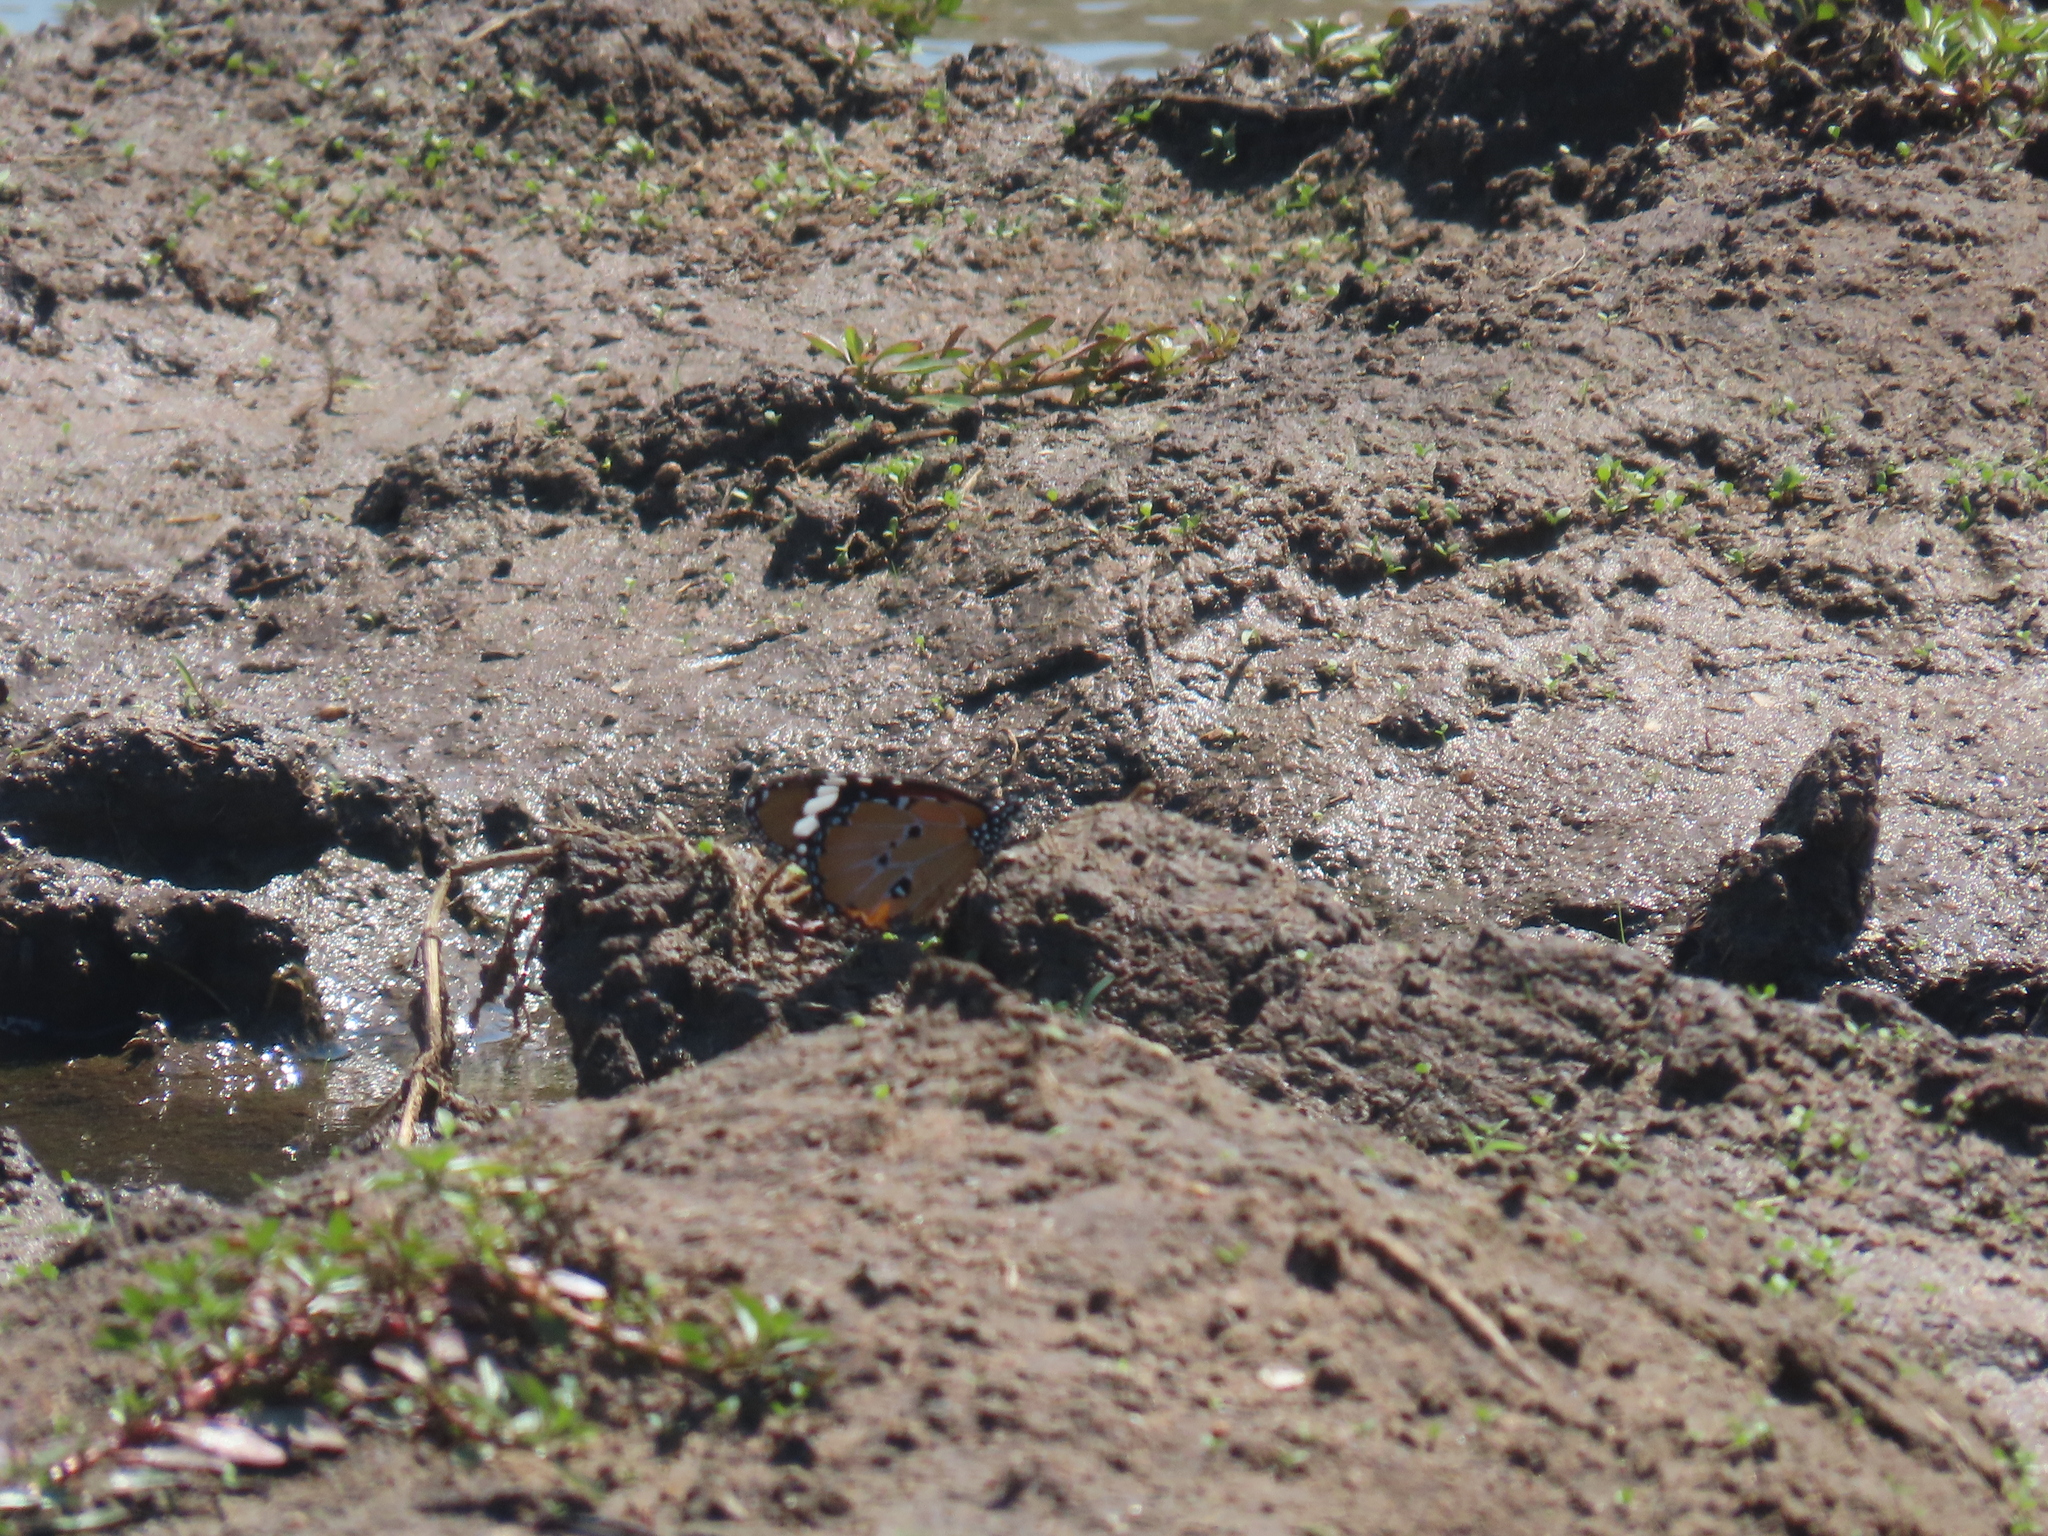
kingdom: Animalia
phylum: Arthropoda
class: Insecta
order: Lepidoptera
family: Nymphalidae
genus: Danaus
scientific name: Danaus chrysippus
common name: Plain tiger
